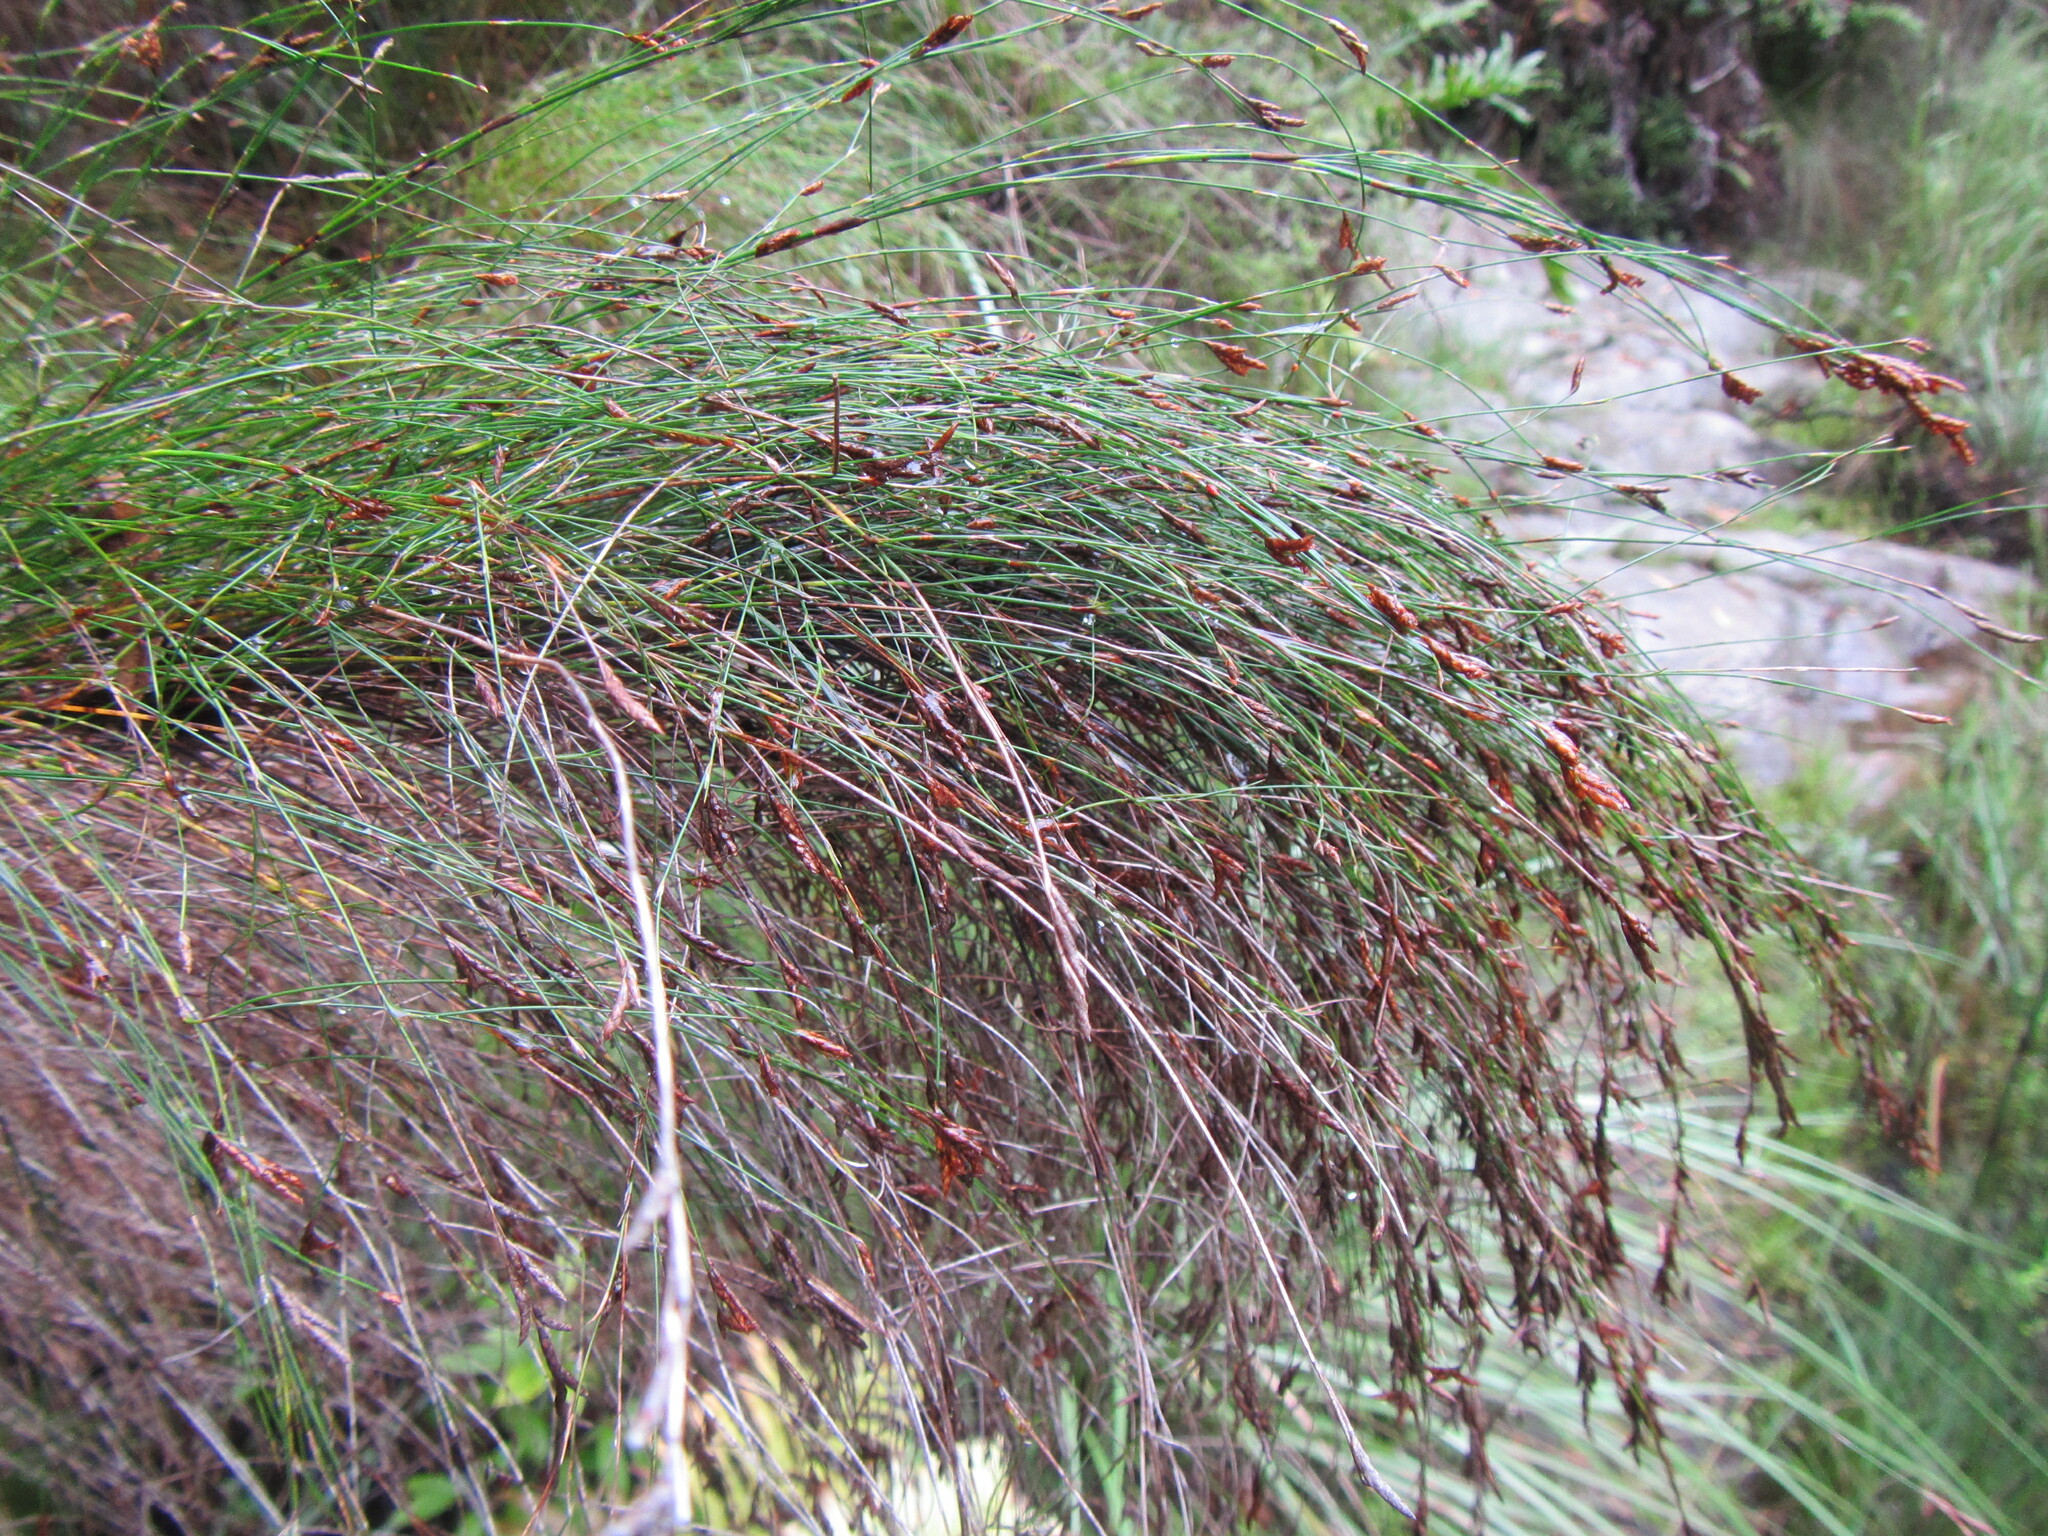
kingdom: Plantae
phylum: Tracheophyta
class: Liliopsida
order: Poales
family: Restionaceae
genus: Restio
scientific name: Restio subverticillatus
